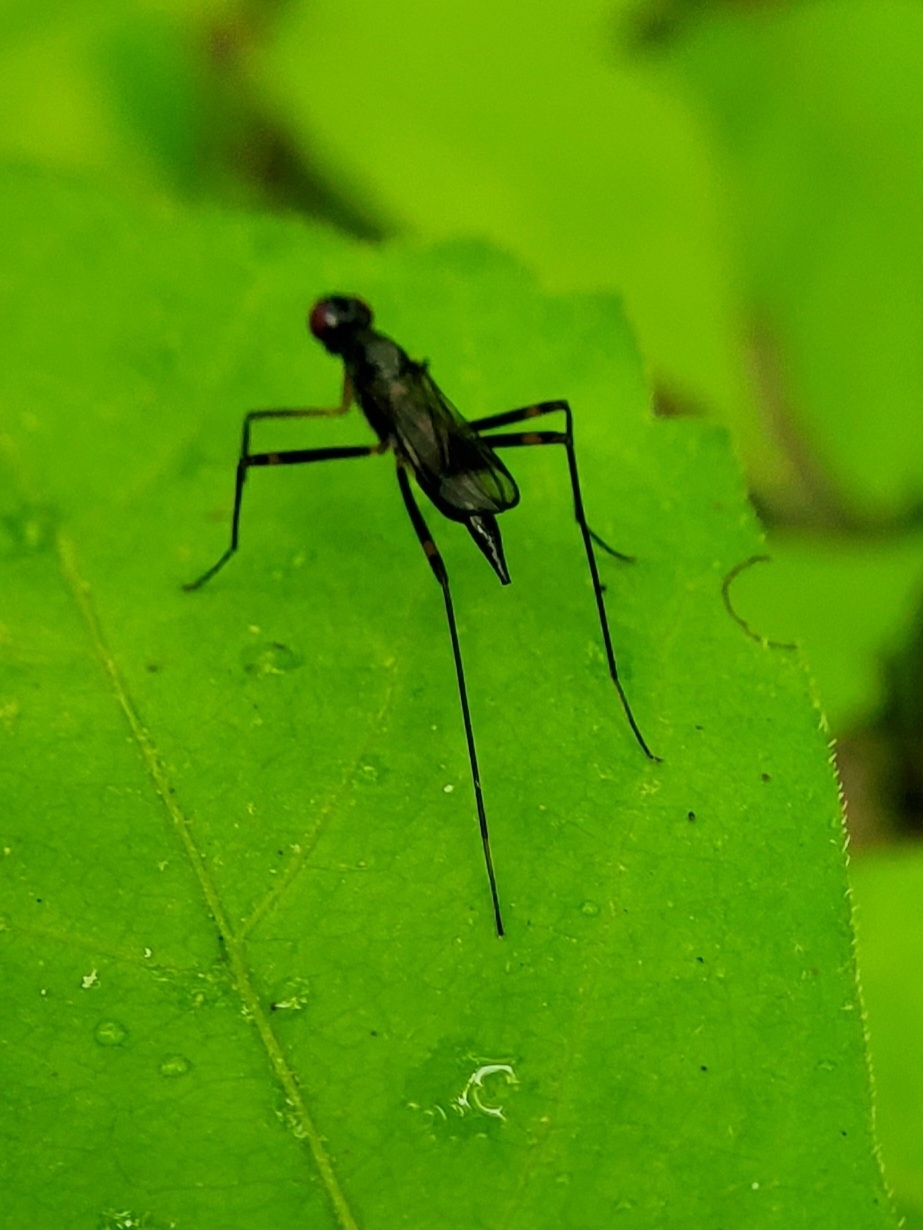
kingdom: Animalia
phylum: Arthropoda
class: Insecta
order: Diptera
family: Micropezidae
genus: Rainieria
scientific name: Rainieria antennaepes
